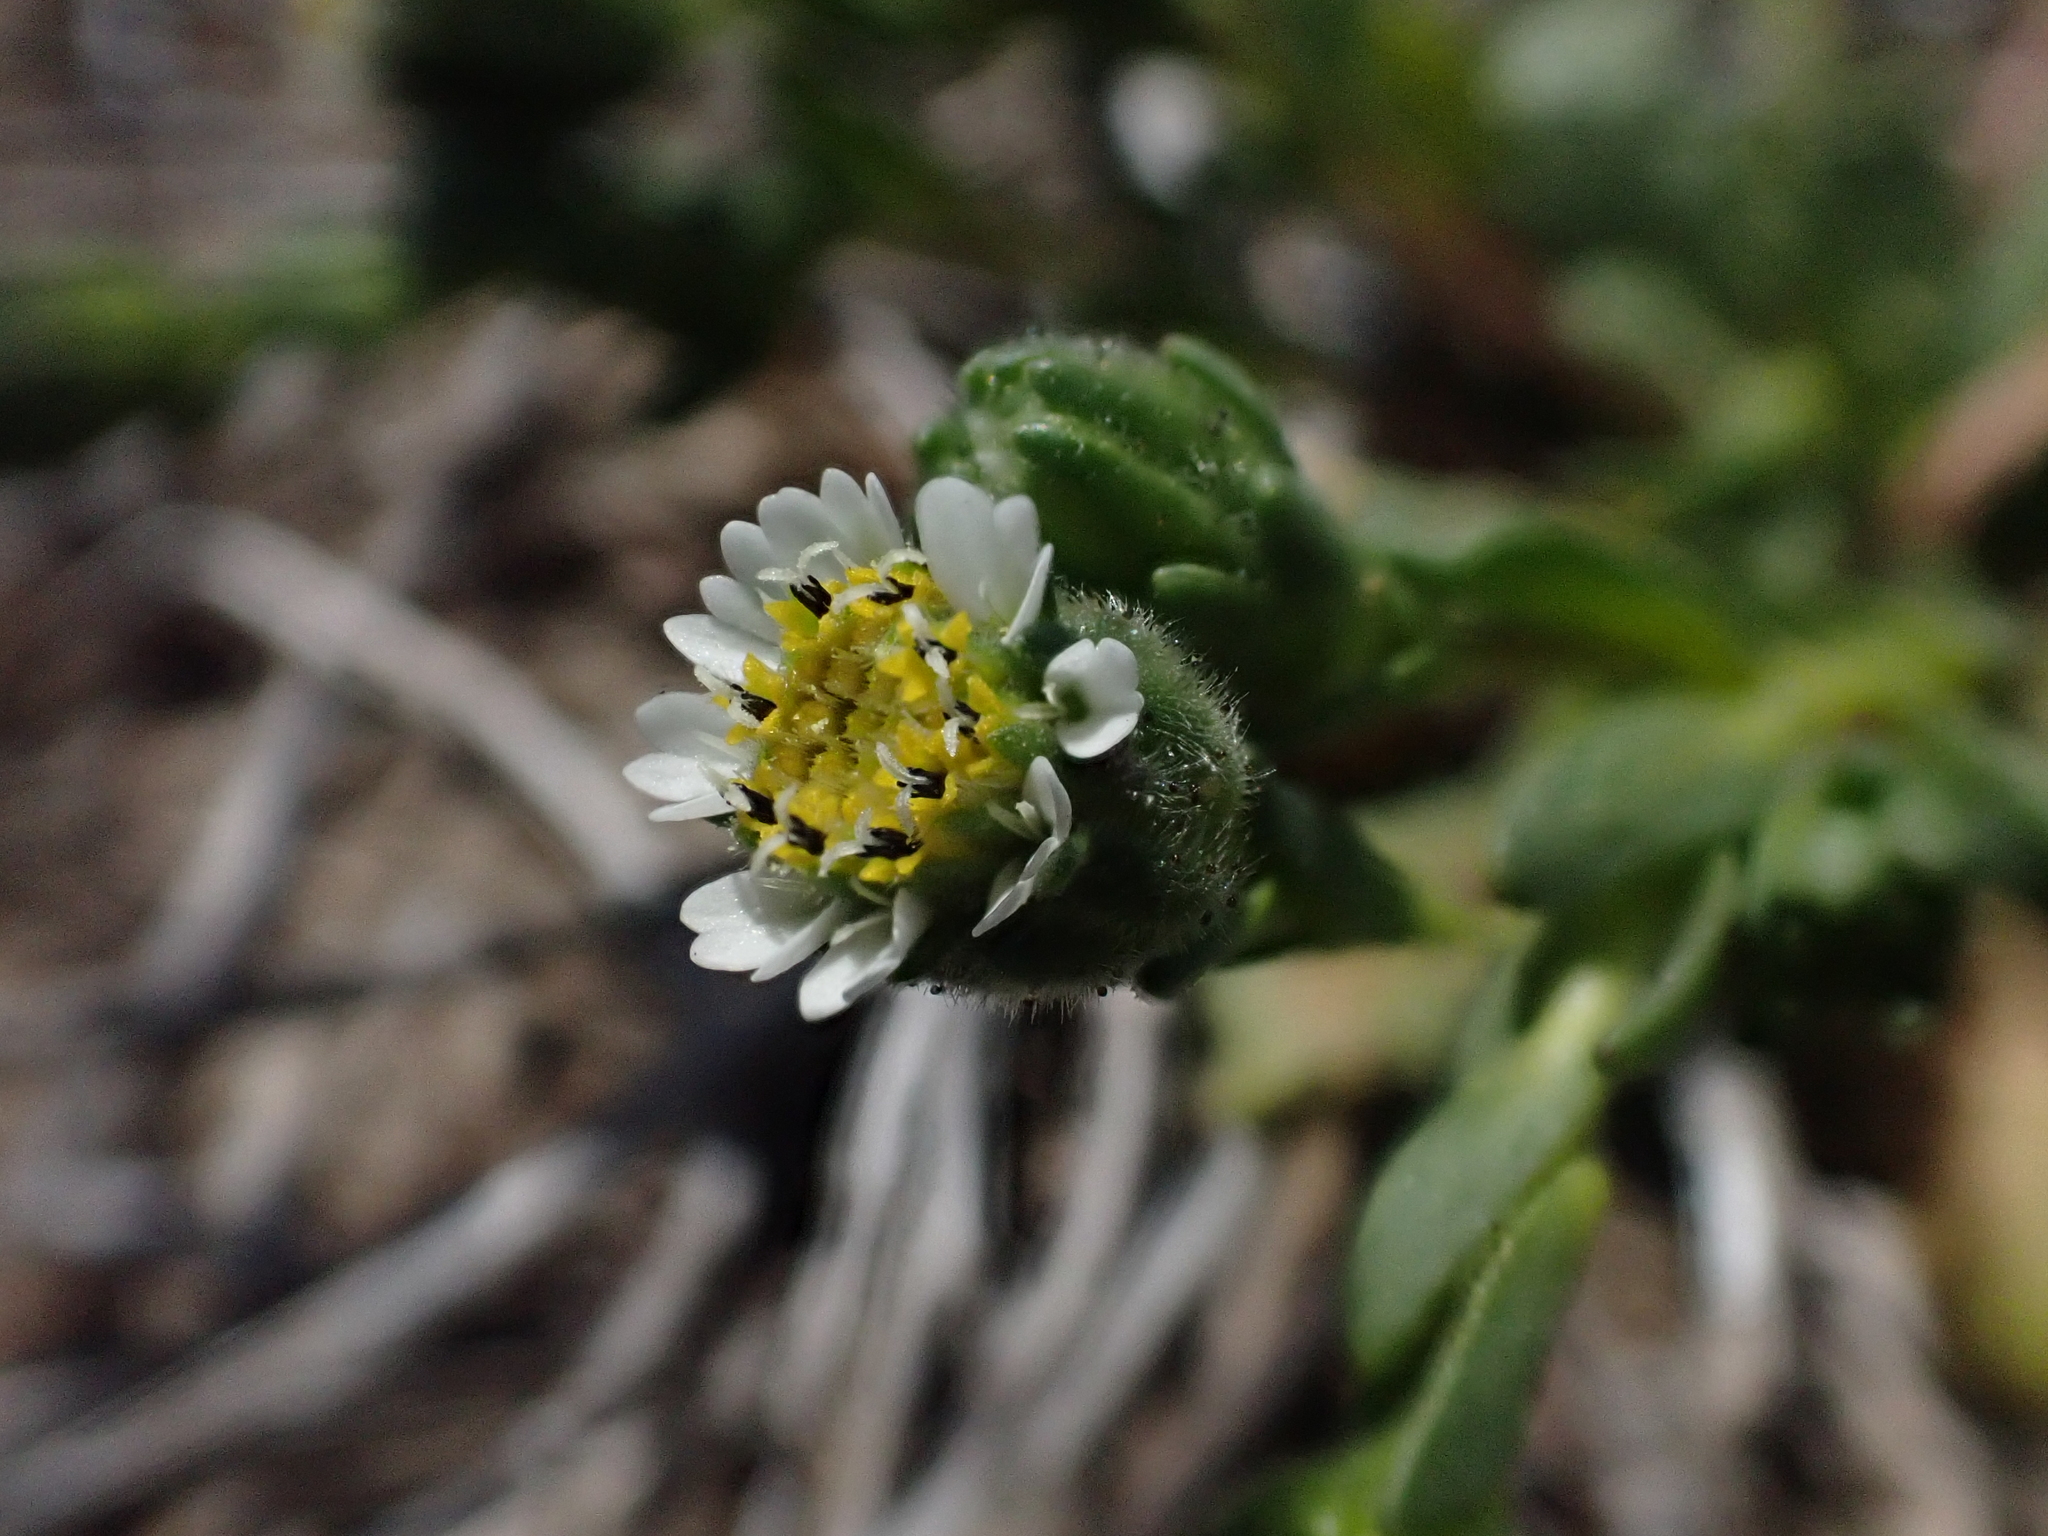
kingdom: Plantae
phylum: Tracheophyta
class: Magnoliopsida
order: Asterales
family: Asteraceae
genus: Layia
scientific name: Layia carnosa
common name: Beach layia
